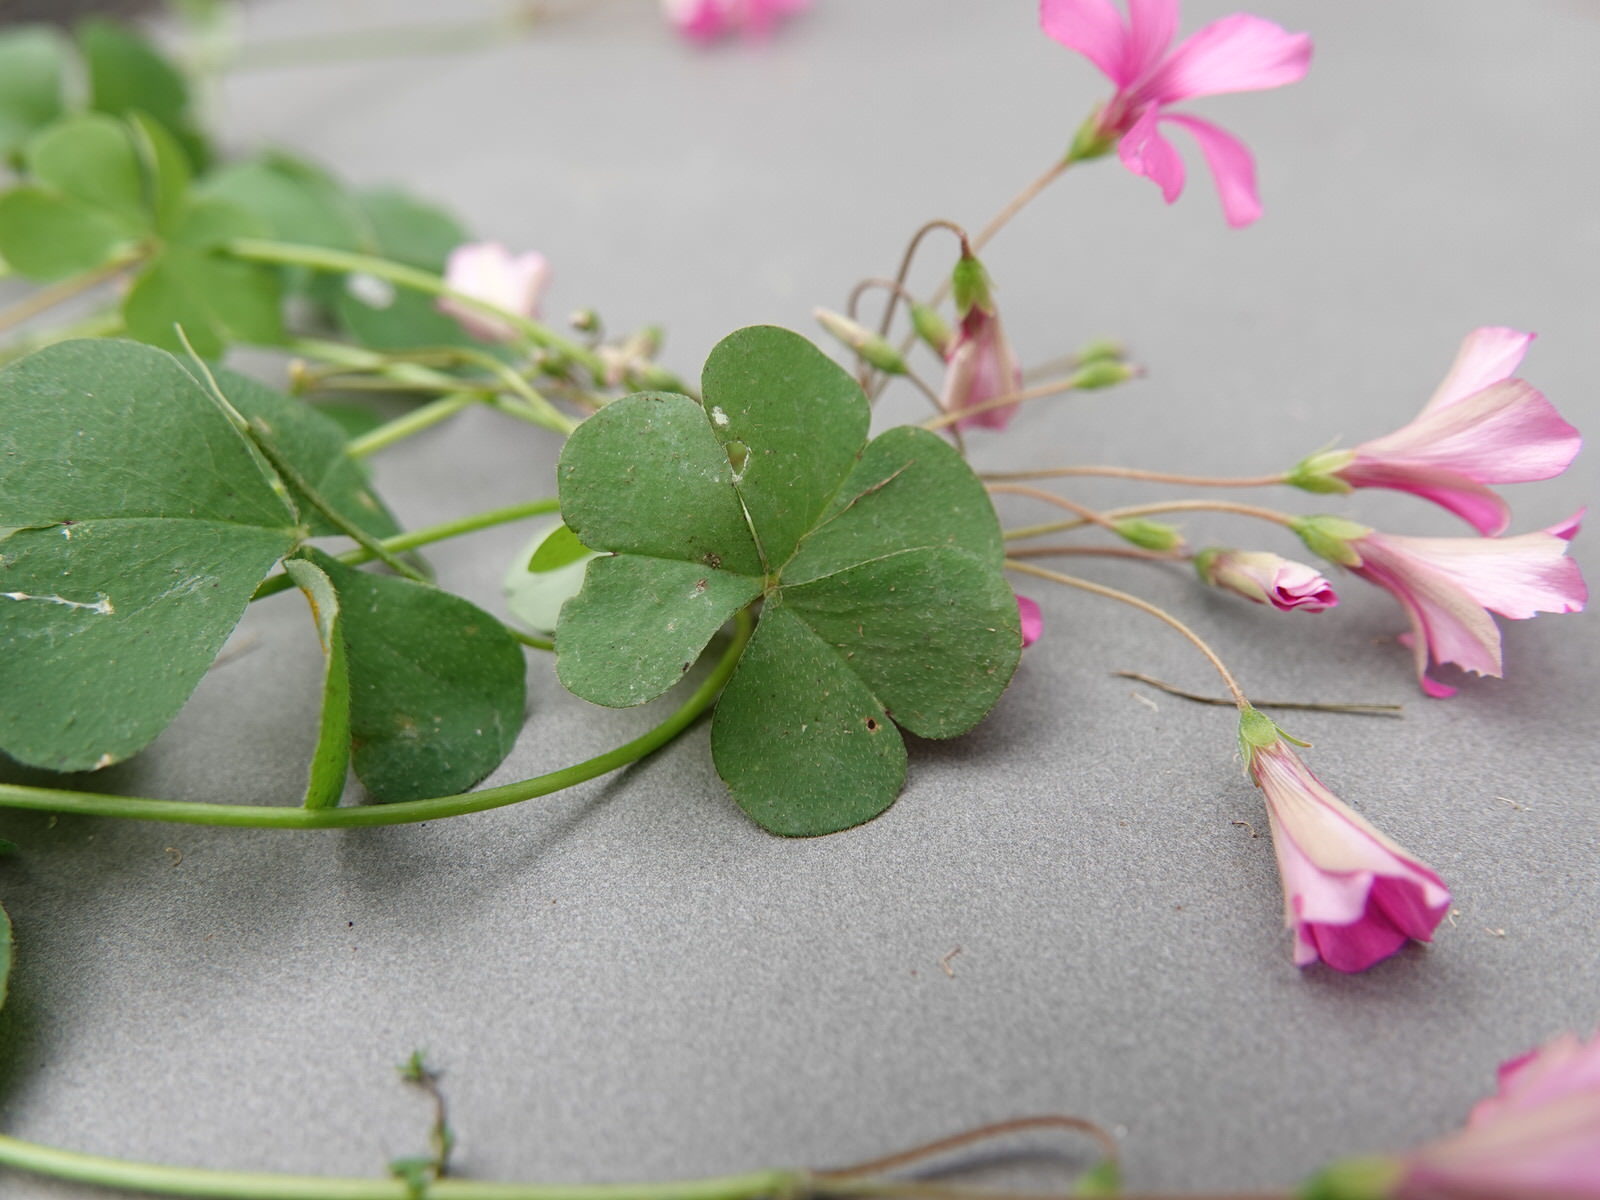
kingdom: Plantae
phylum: Tracheophyta
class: Magnoliopsida
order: Oxalidales
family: Oxalidaceae
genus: Oxalis
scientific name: Oxalis articulata
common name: Pink-sorrel
